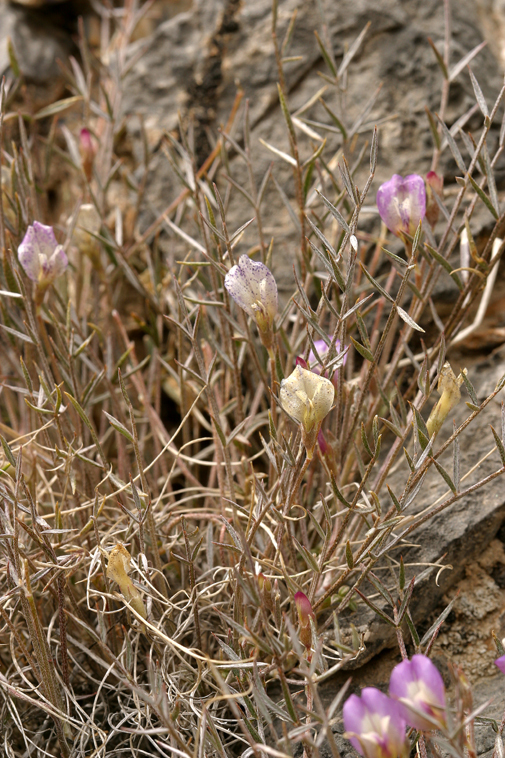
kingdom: Plantae
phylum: Tracheophyta
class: Magnoliopsida
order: Fabales
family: Fabaceae
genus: Astragalus
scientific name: Astragalus panamintensis
